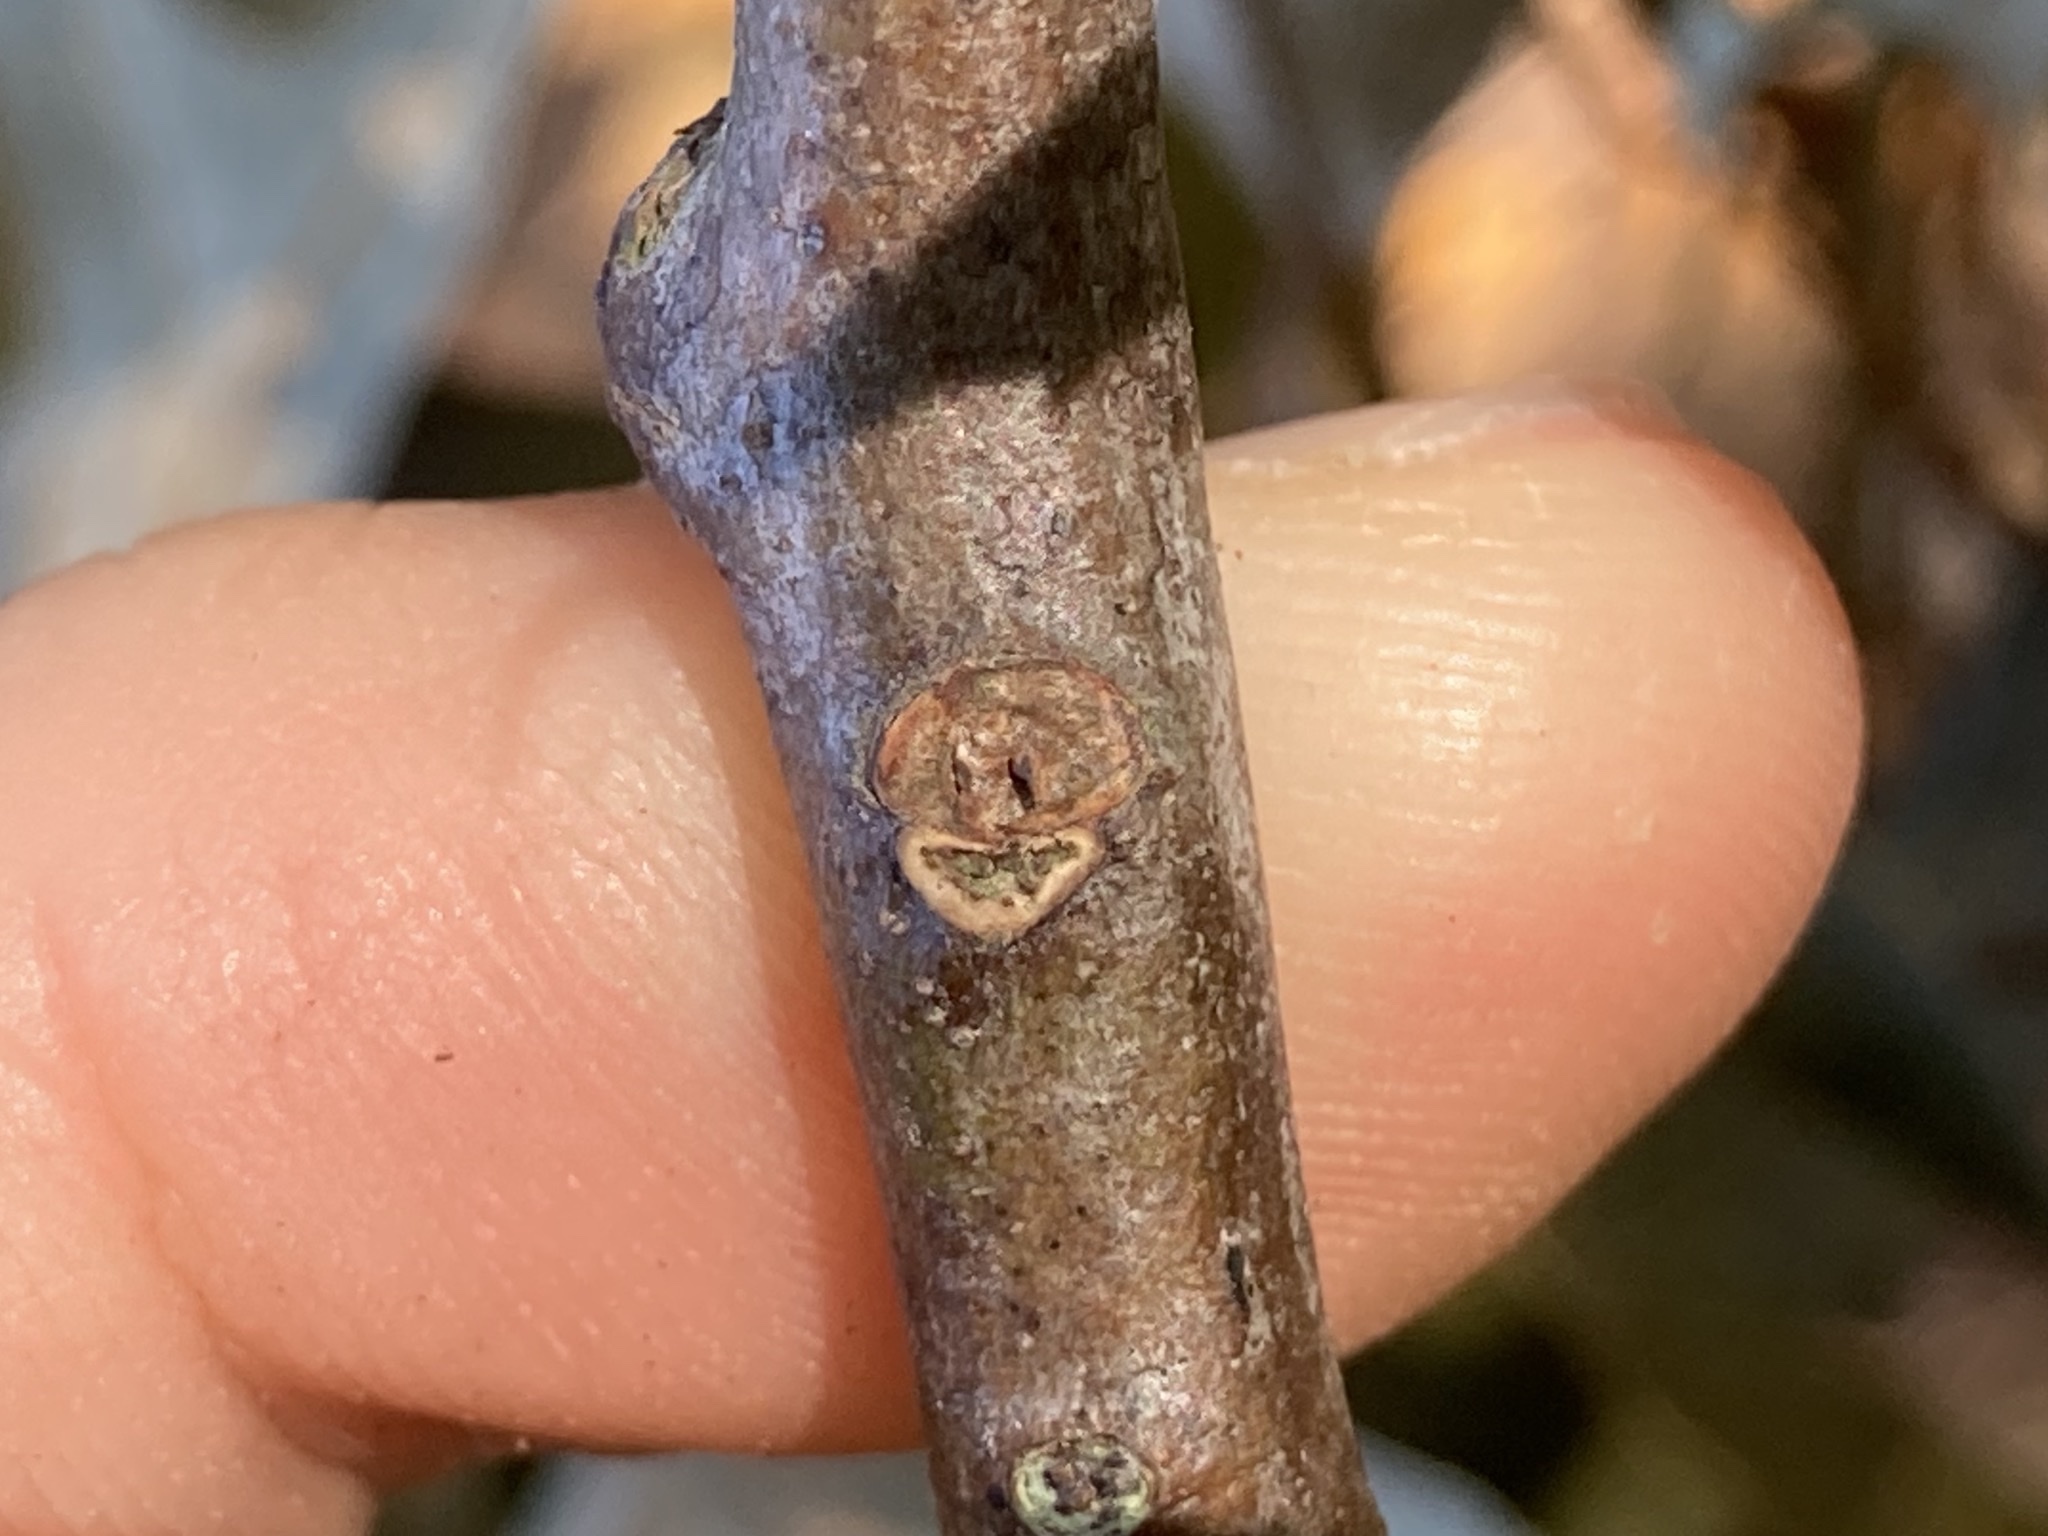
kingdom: Plantae
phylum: Tracheophyta
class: Magnoliopsida
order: Fagales
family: Fagaceae
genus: Quercus
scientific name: Quercus falcata
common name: Southern red oak
